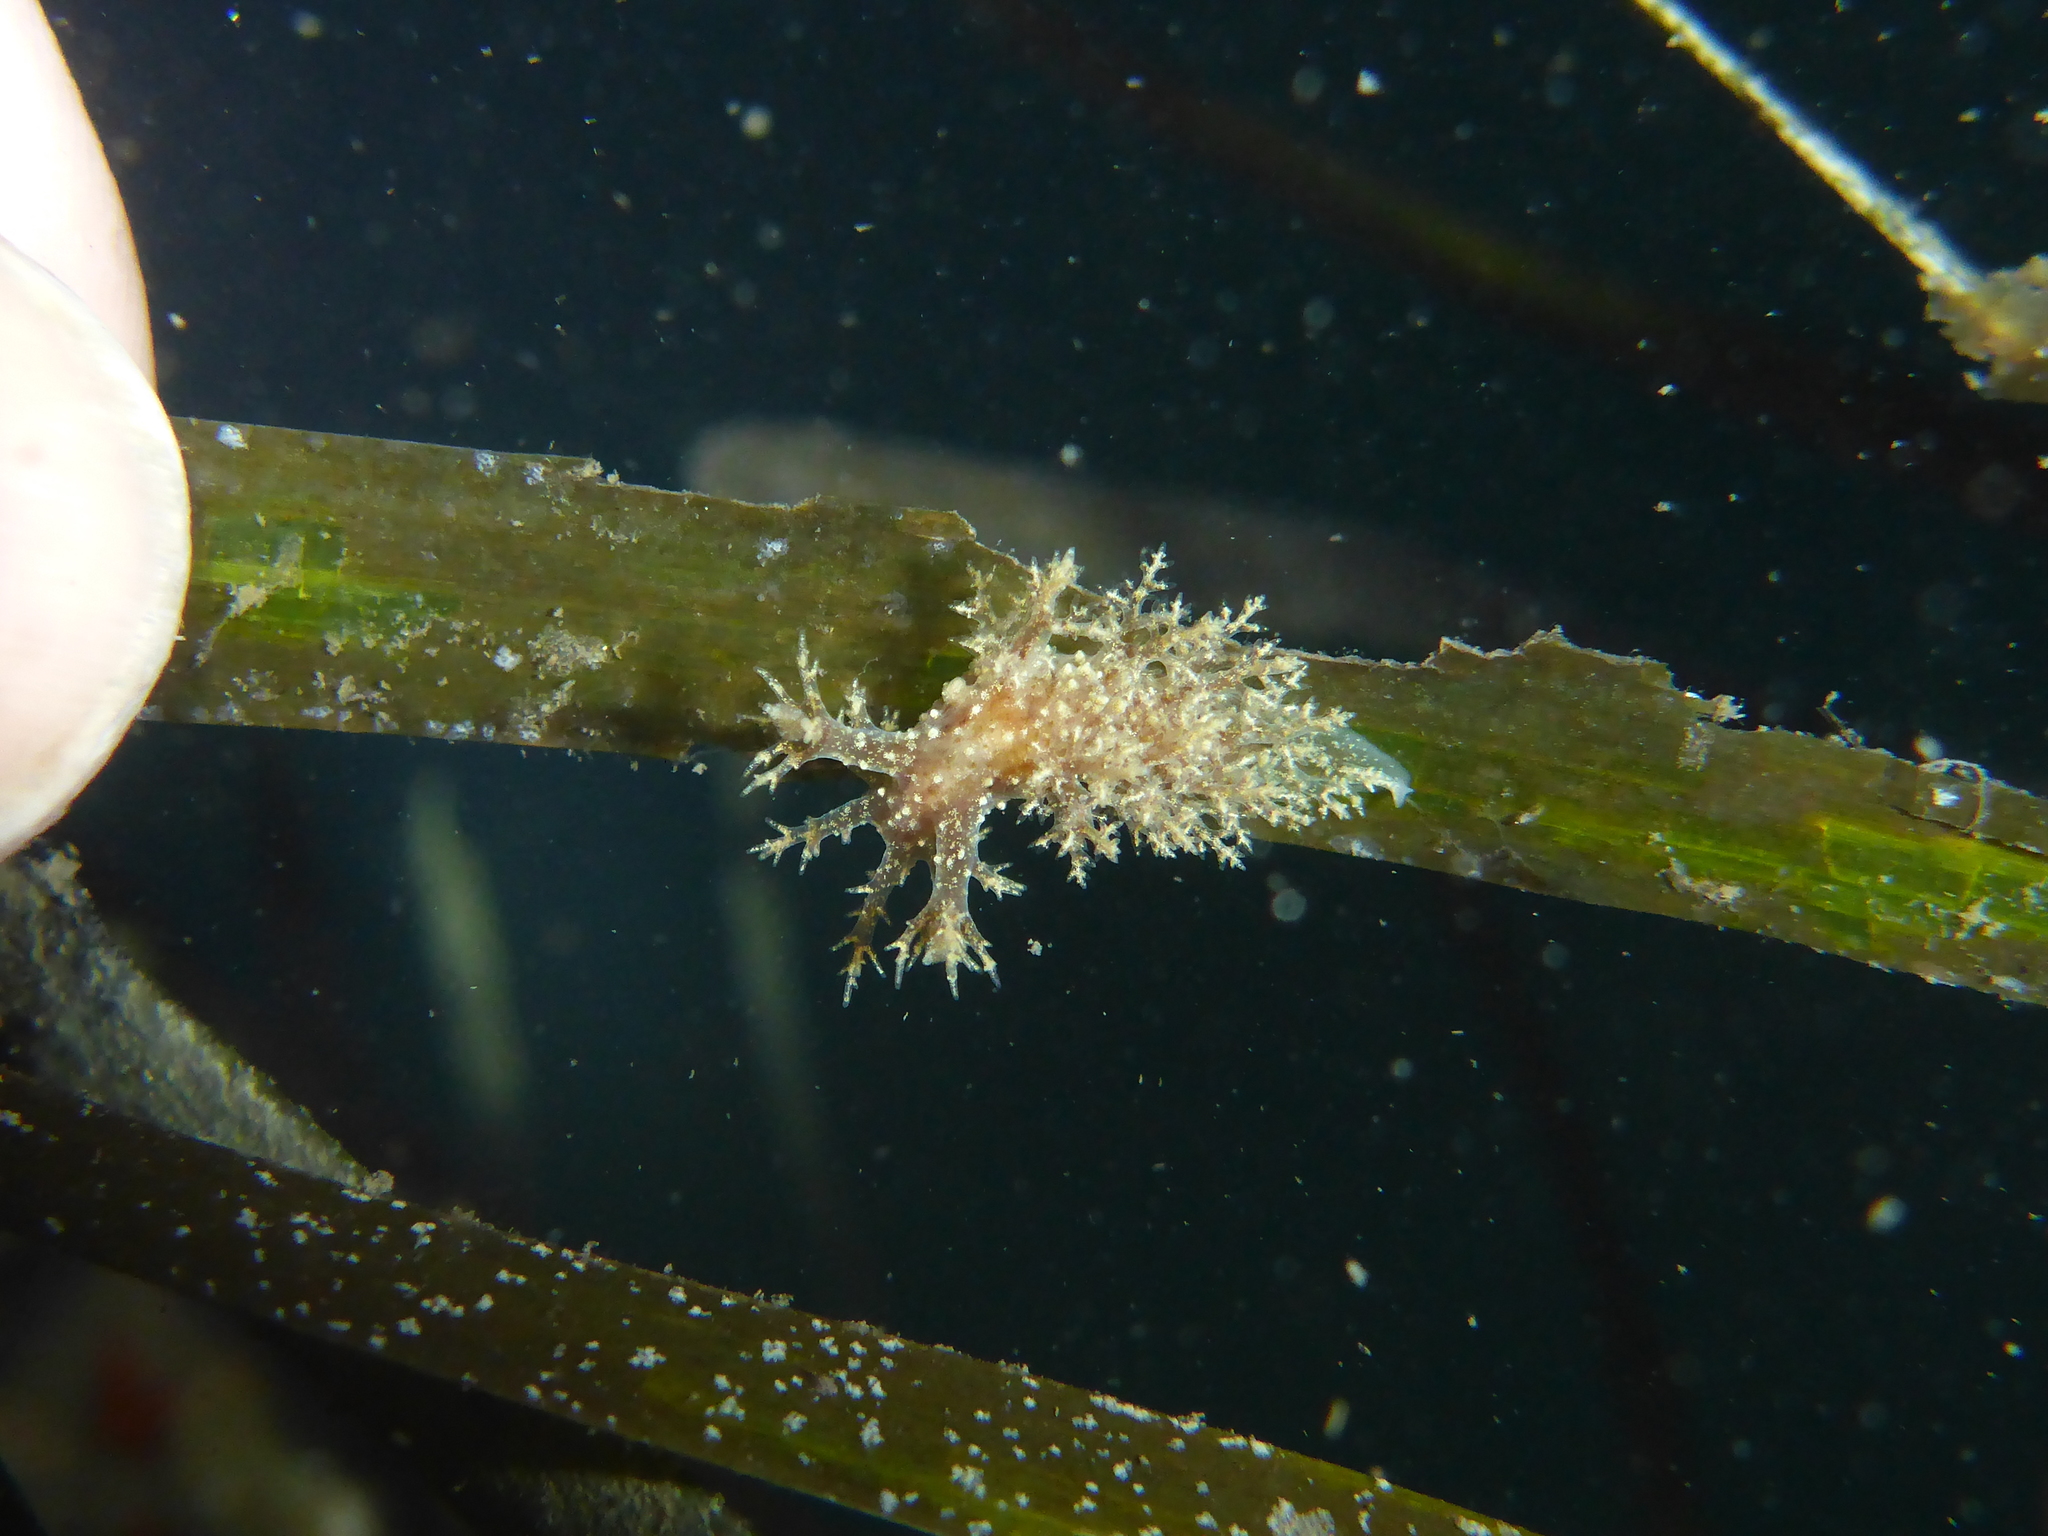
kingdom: Animalia
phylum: Mollusca
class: Gastropoda
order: Nudibranchia
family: Dendronotidae
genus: Dendronotus
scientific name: Dendronotus venustus
